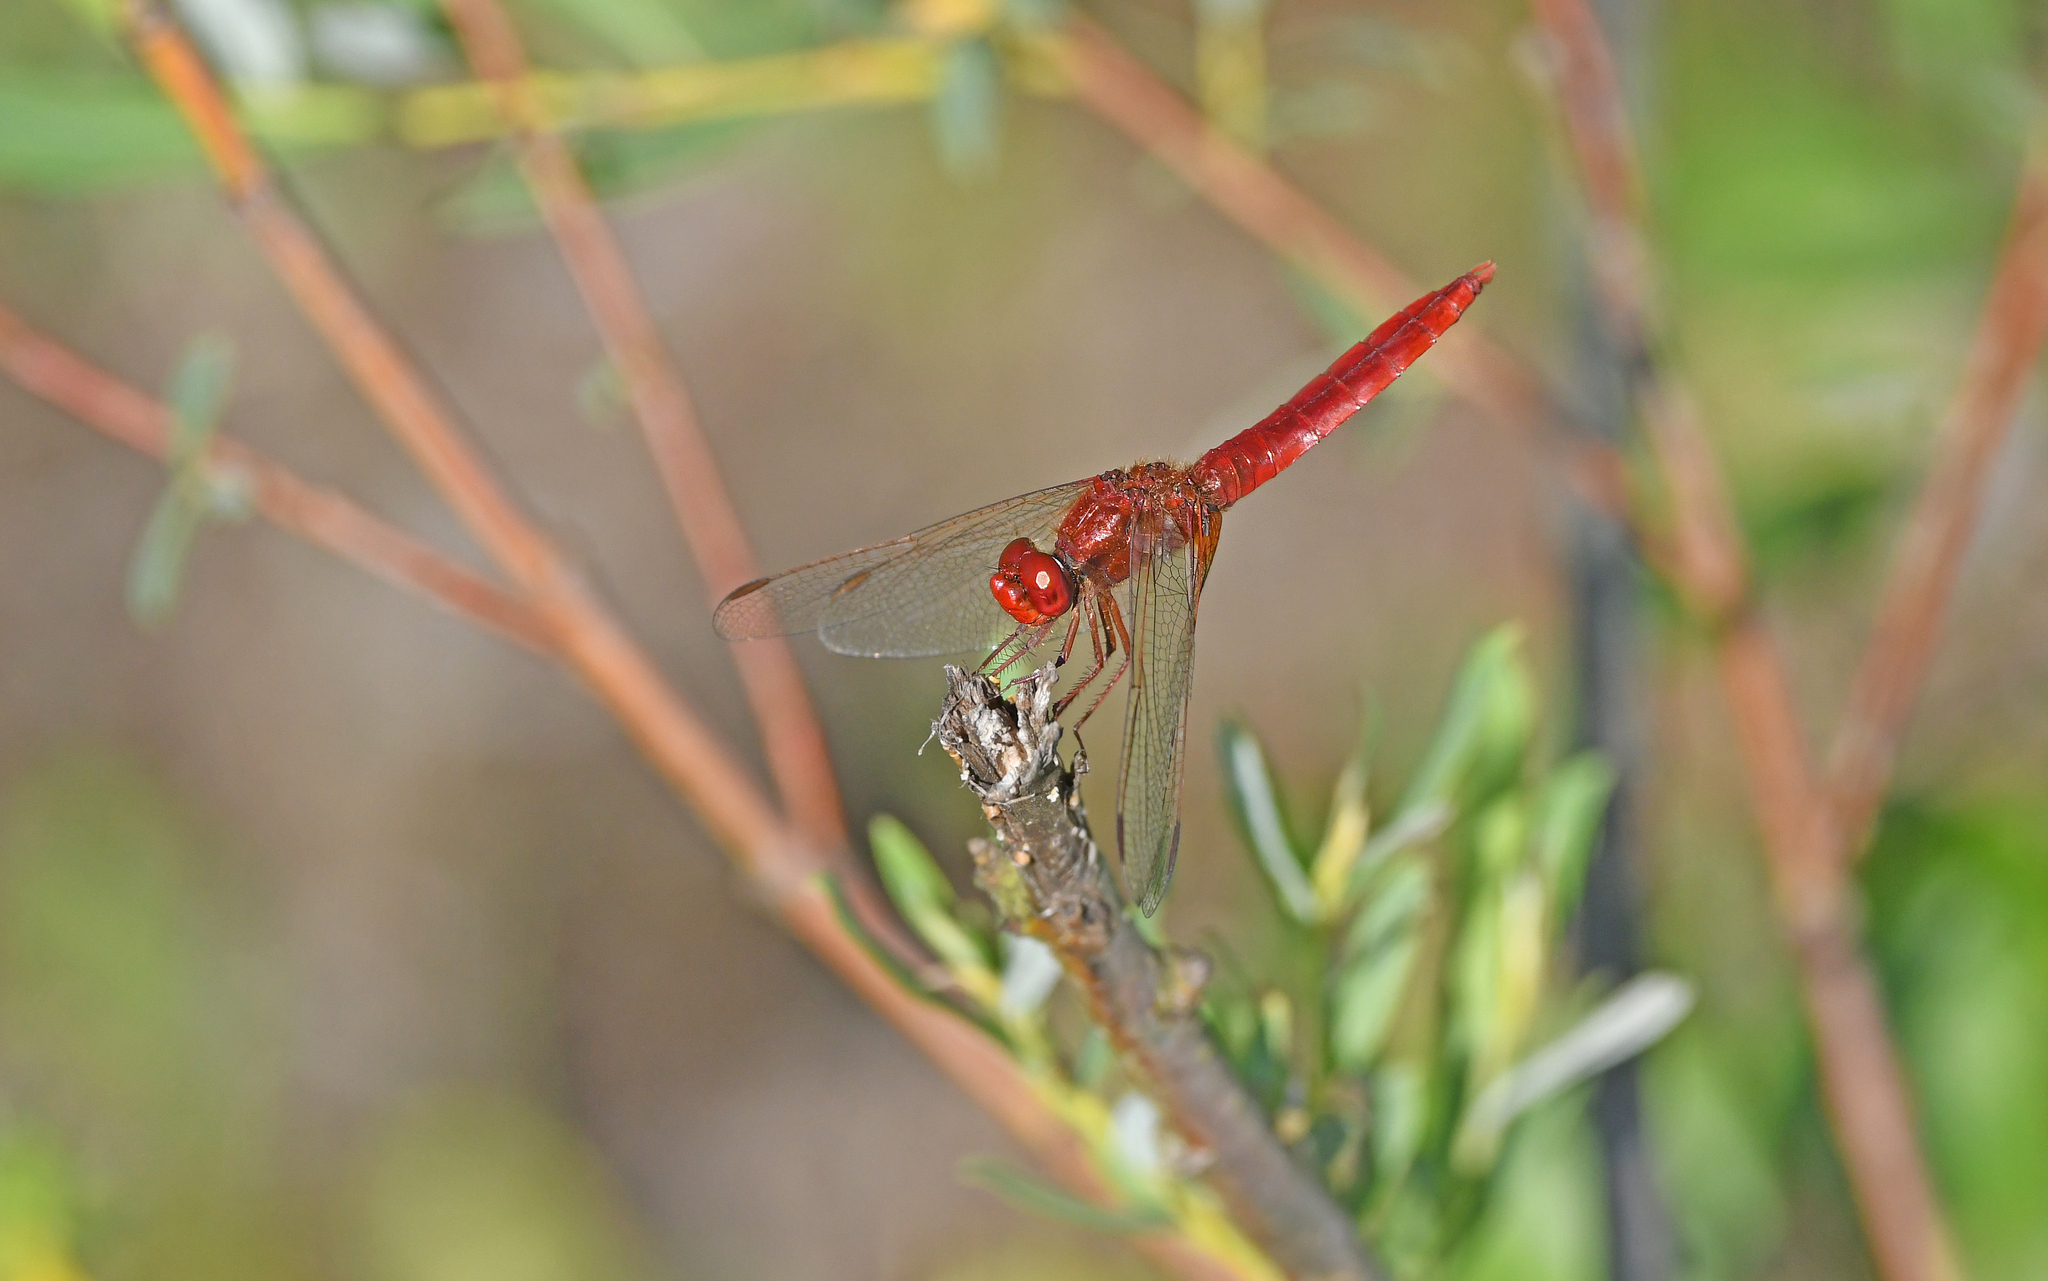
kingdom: Animalia
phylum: Arthropoda
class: Insecta
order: Odonata
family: Libellulidae
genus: Crocothemis
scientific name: Crocothemis erythraea
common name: Scarlet dragonfly
